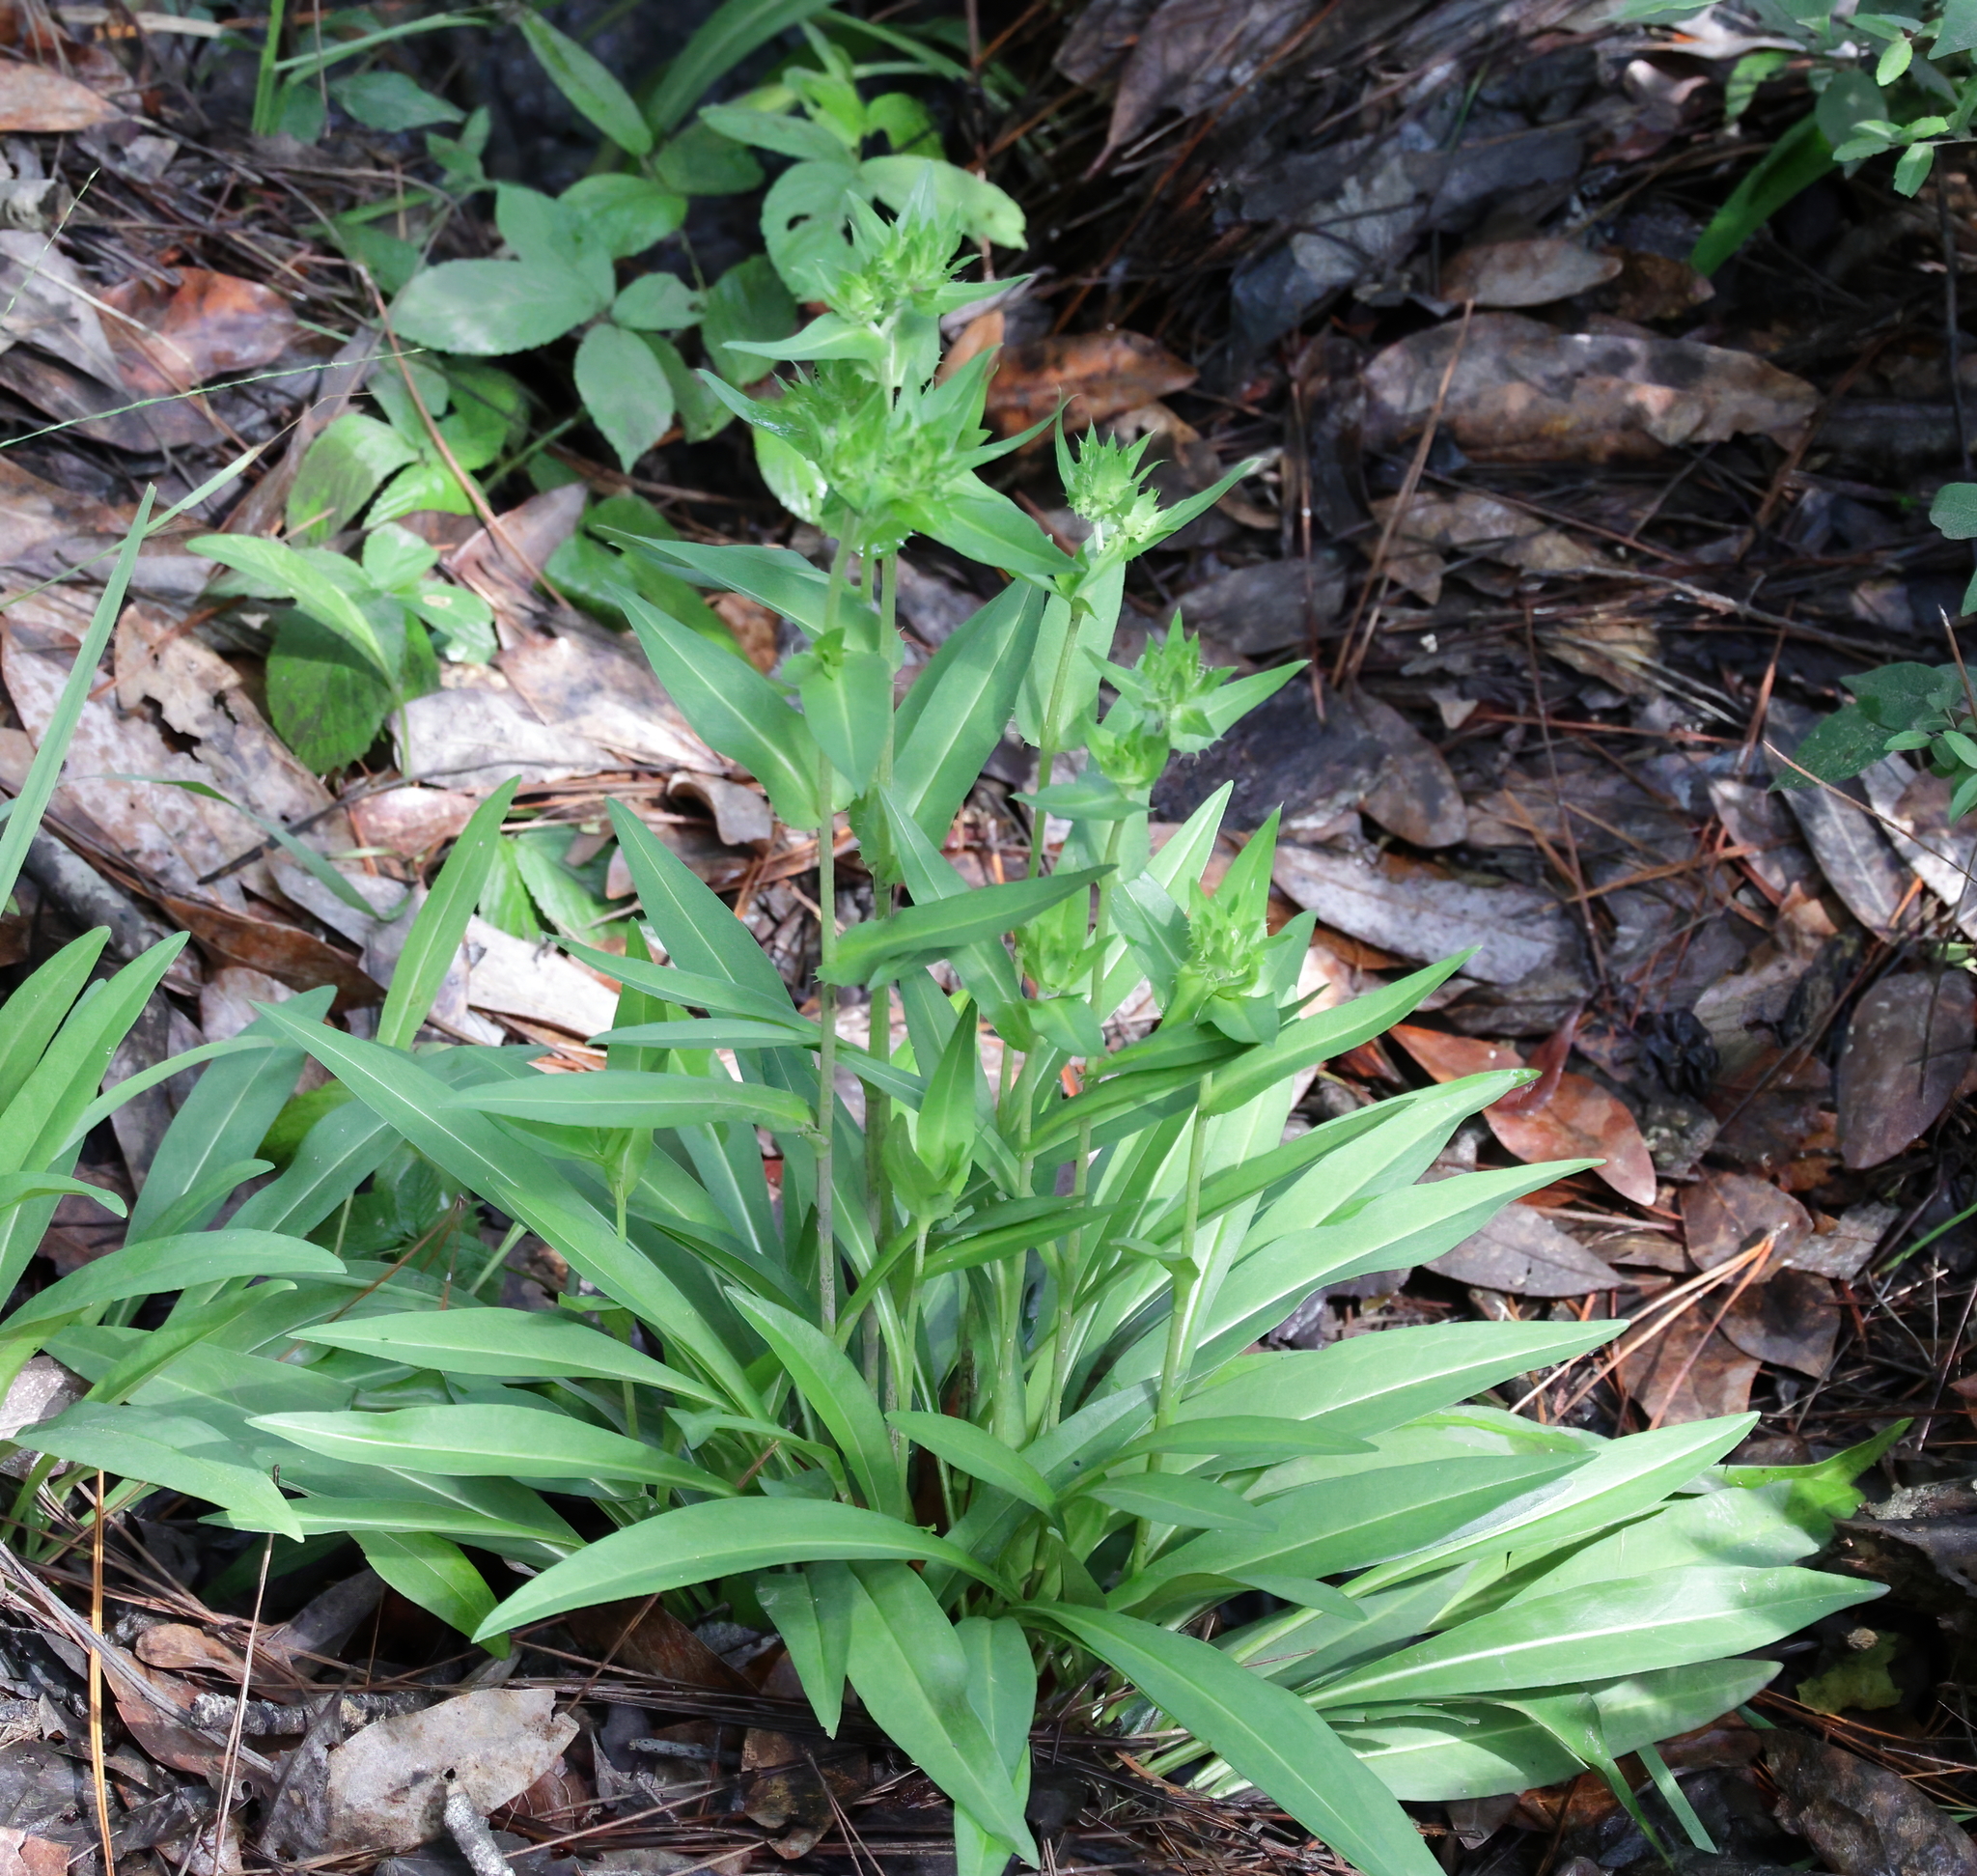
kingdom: Plantae
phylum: Tracheophyta
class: Magnoliopsida
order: Asterales
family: Asteraceae
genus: Stokesia
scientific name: Stokesia laevis
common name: Stokes'-aster
